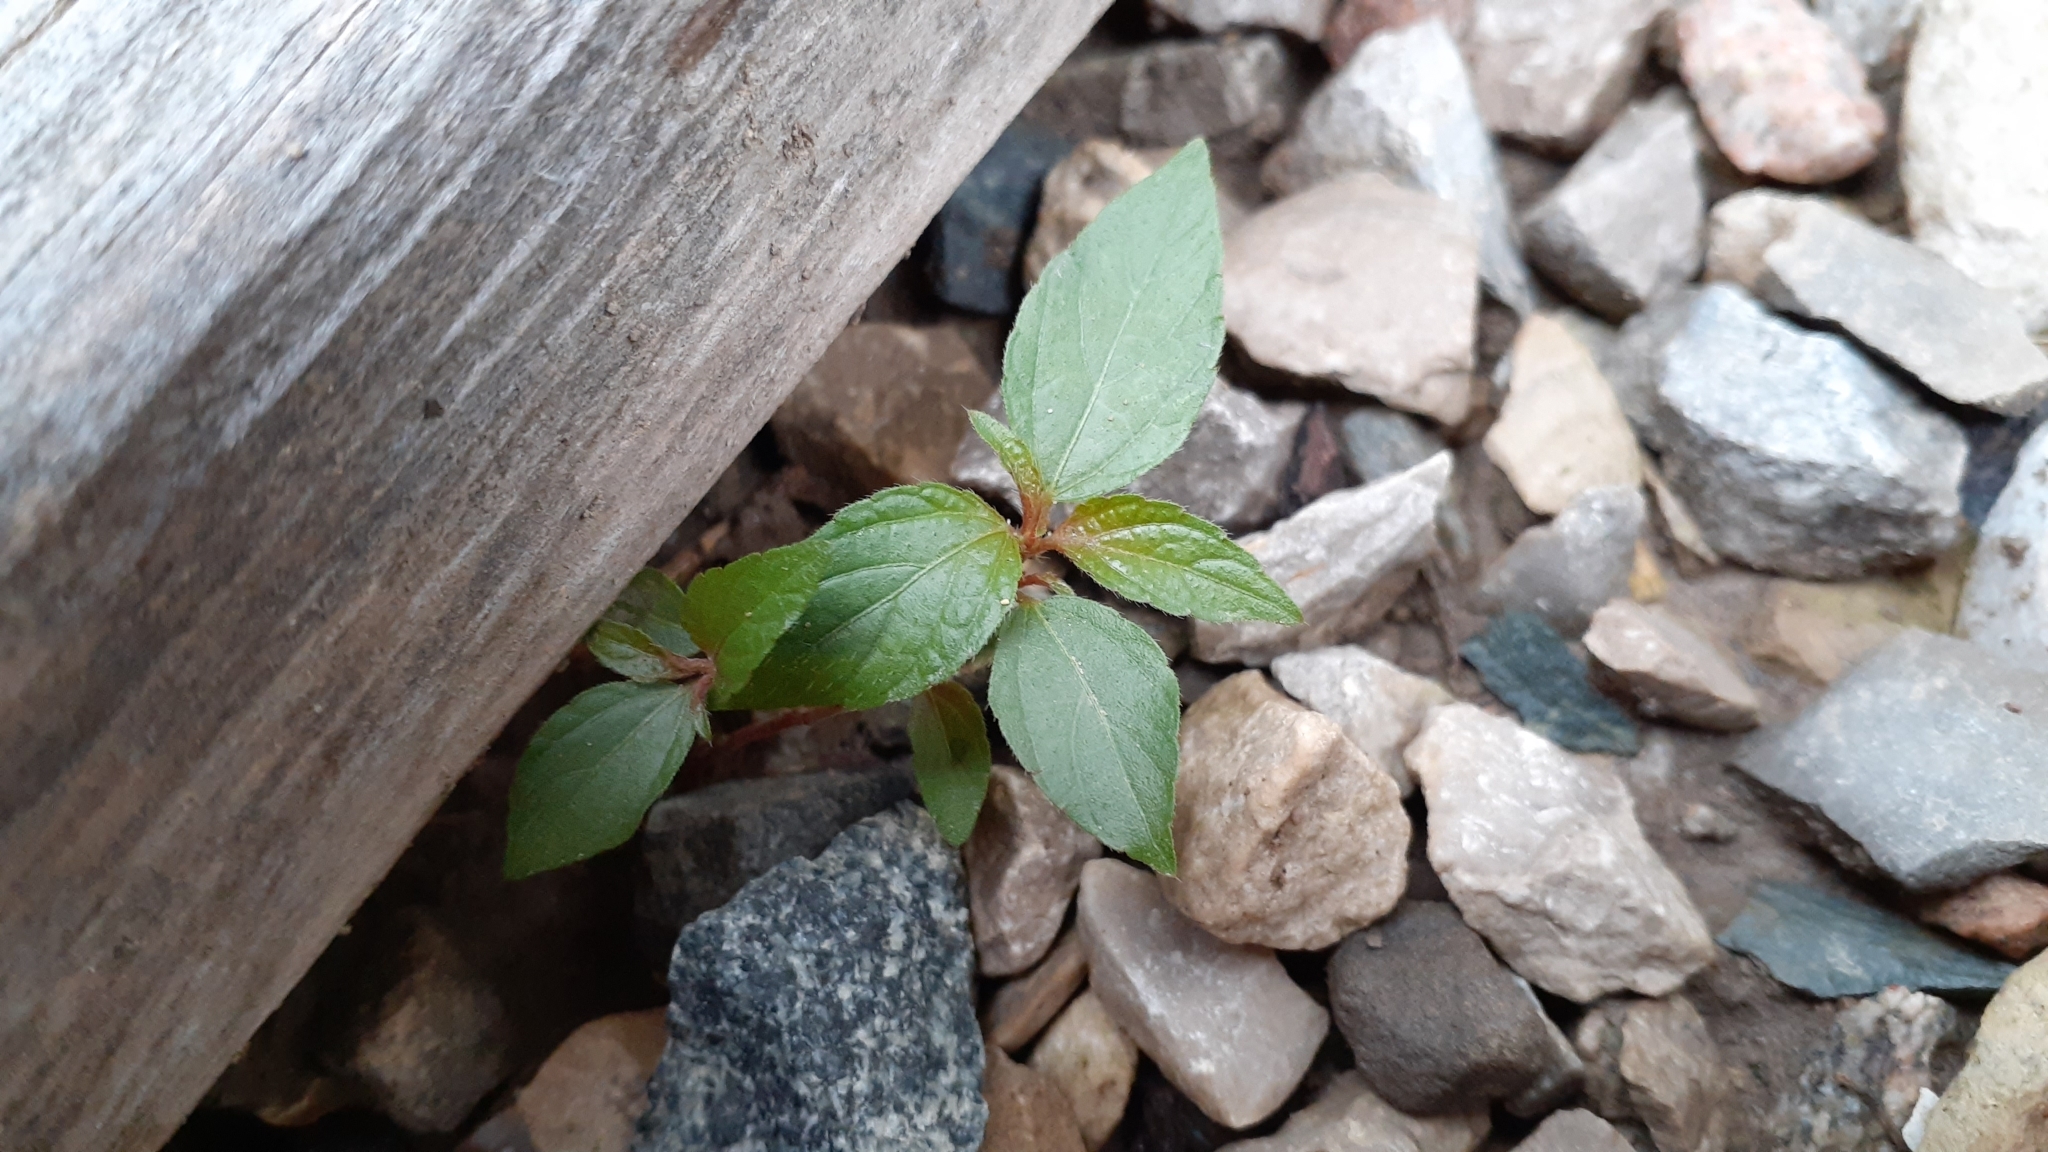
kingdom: Plantae
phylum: Tracheophyta
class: Magnoliopsida
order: Malpighiales
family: Euphorbiaceae
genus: Acalypha
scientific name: Acalypha rhomboidea
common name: Rhombic copperleaf
